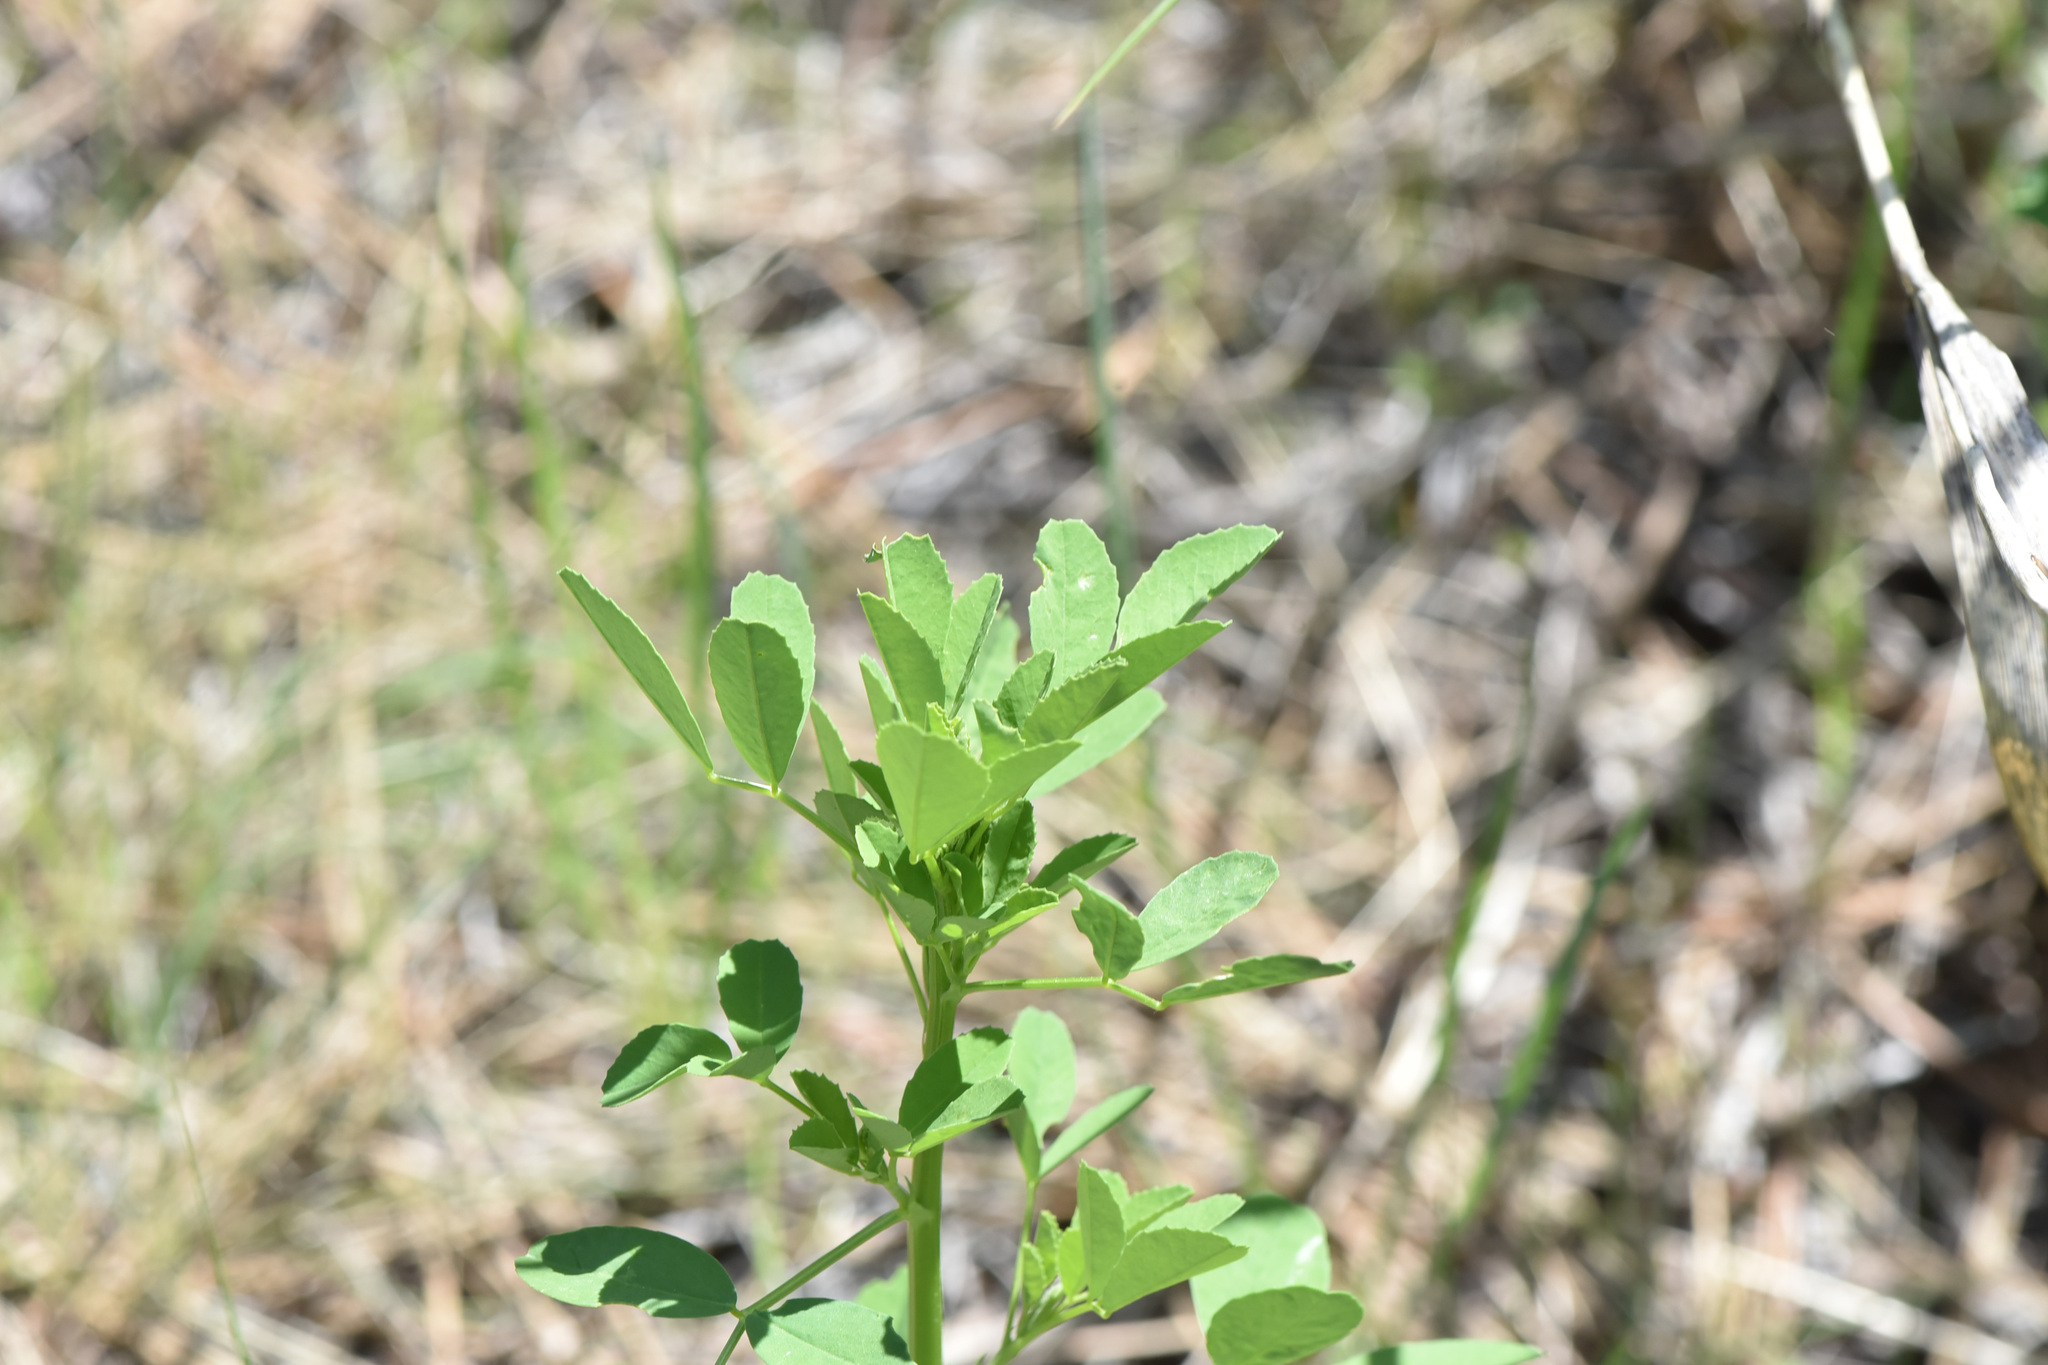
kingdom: Plantae
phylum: Tracheophyta
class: Magnoliopsida
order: Fabales
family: Fabaceae
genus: Melilotus
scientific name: Melilotus albus
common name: White melilot
